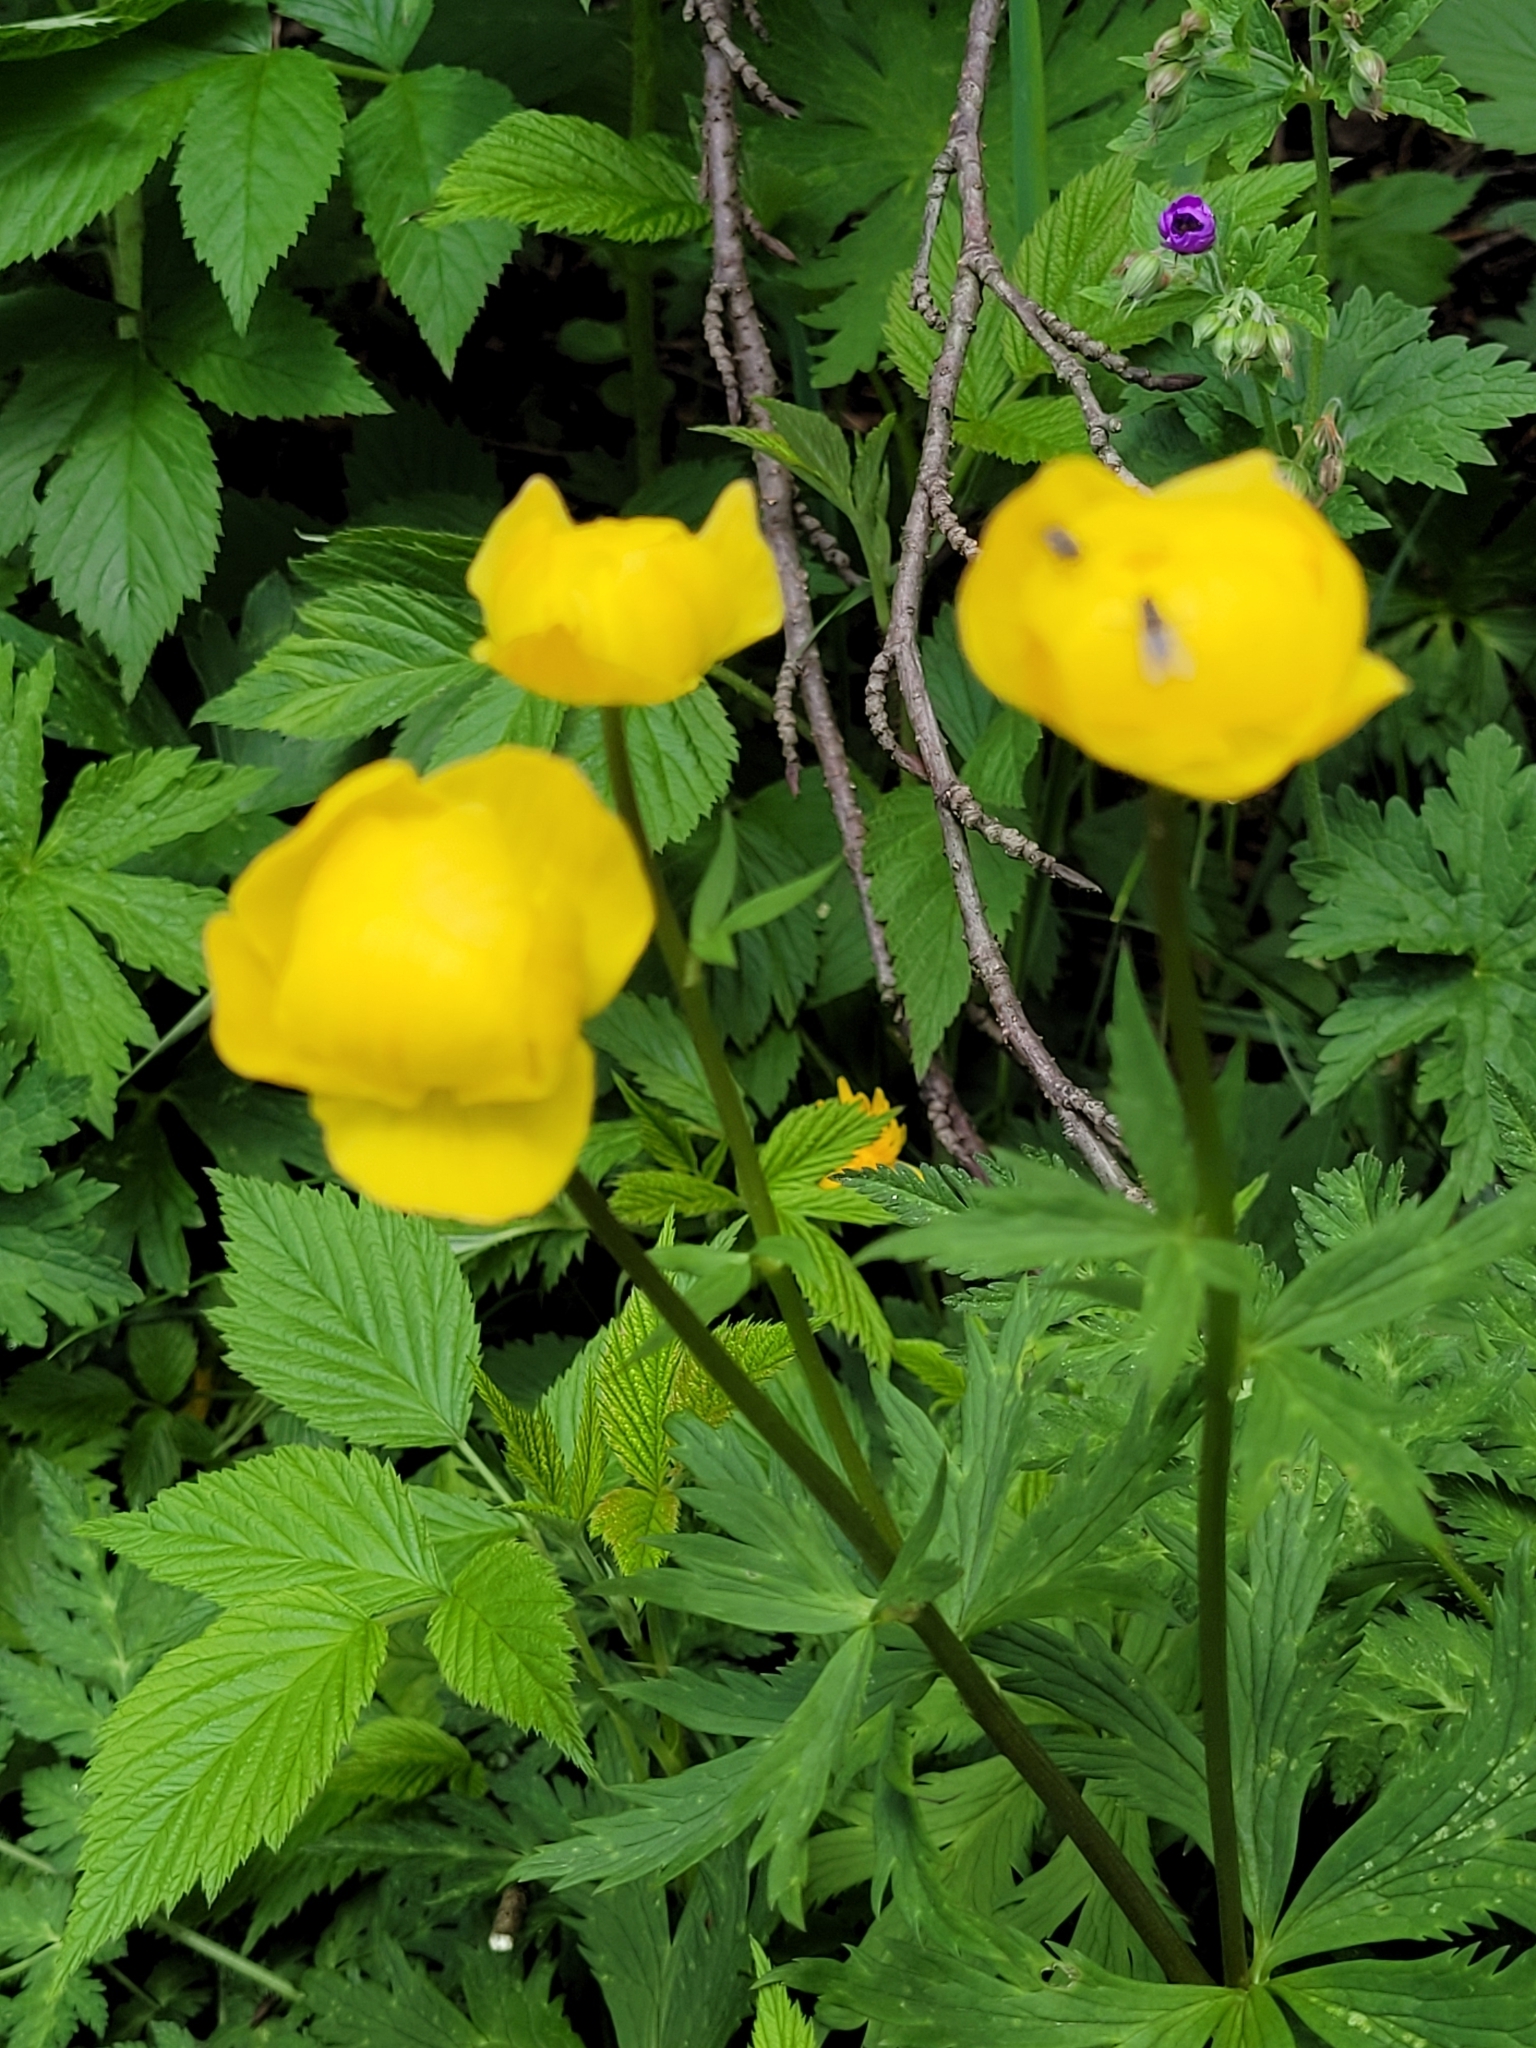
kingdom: Plantae
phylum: Tracheophyta
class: Magnoliopsida
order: Ranunculales
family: Ranunculaceae
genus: Trollius
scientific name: Trollius europaeus
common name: European globeflower
